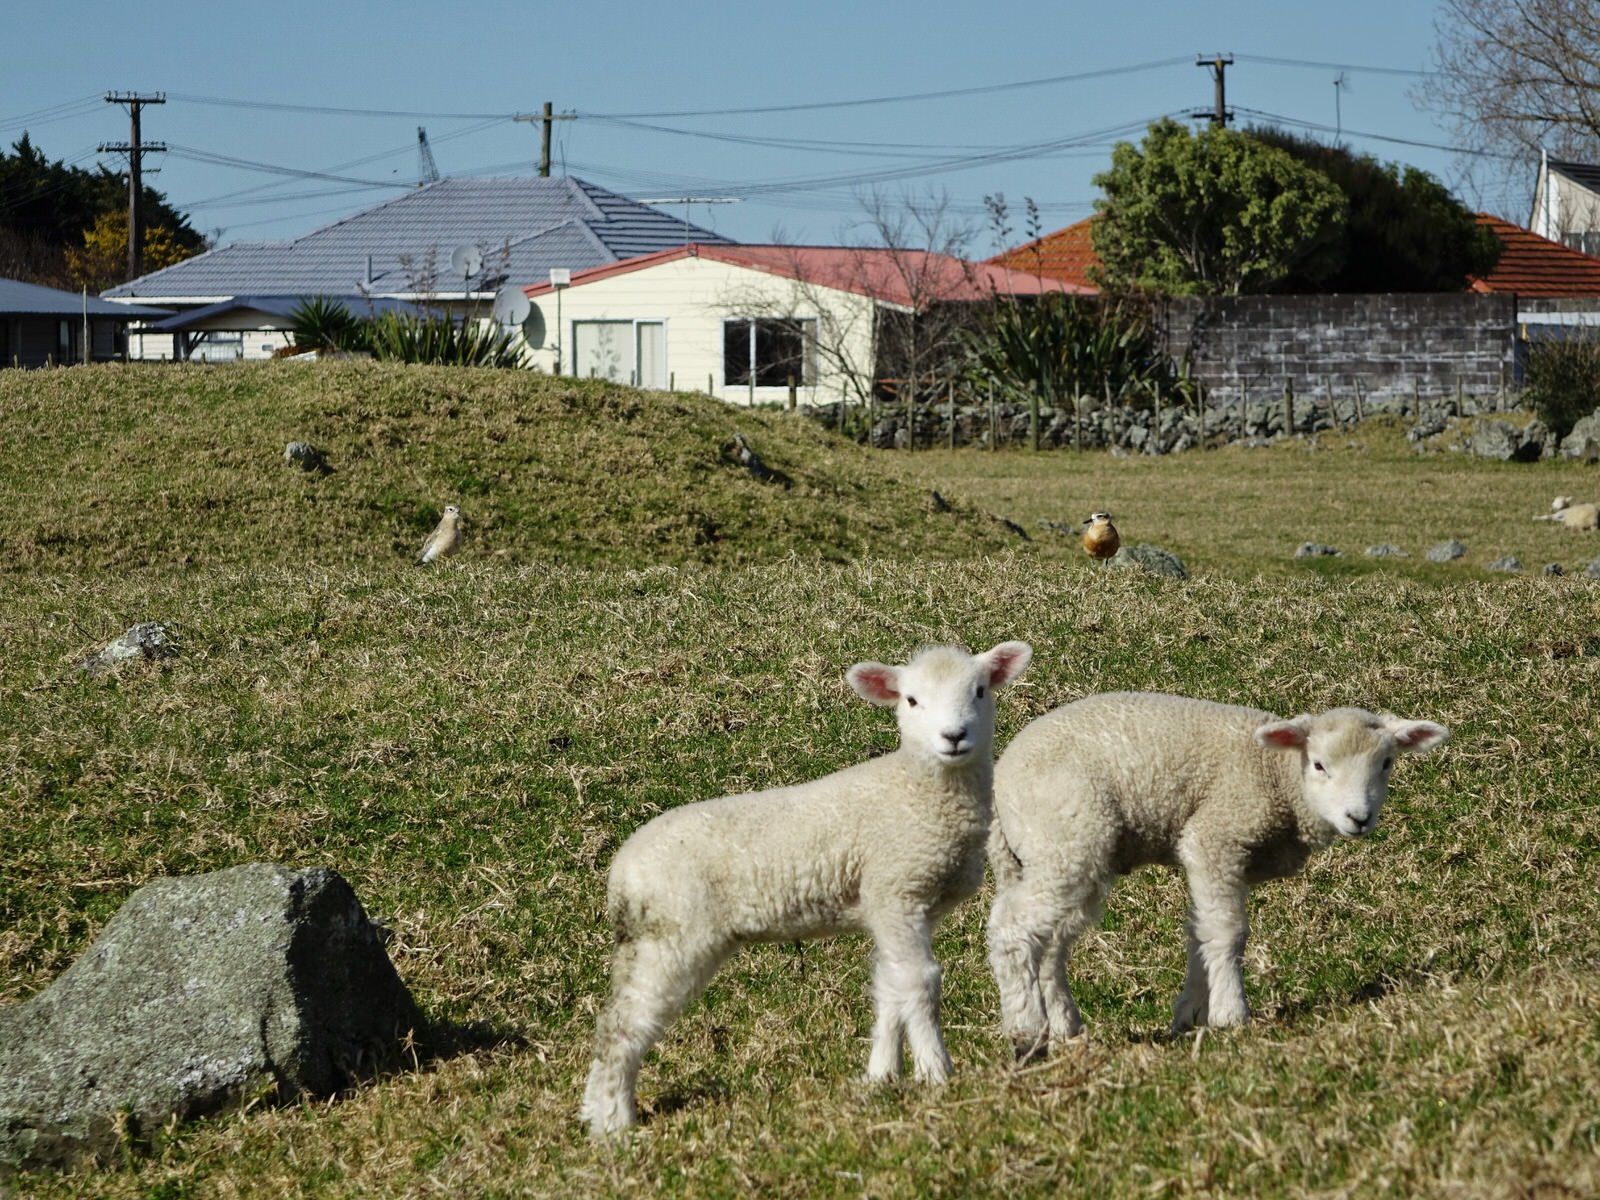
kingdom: Animalia
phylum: Chordata
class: Aves
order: Charadriiformes
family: Charadriidae
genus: Anarhynchus
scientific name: Anarhynchus
